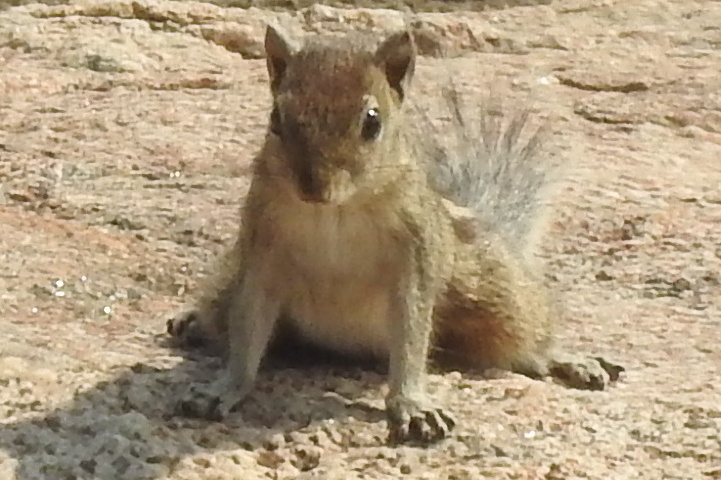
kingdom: Animalia
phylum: Chordata
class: Mammalia
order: Rodentia
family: Sciuridae
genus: Funambulus
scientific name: Funambulus palmarum
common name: Indian palm squirrel
